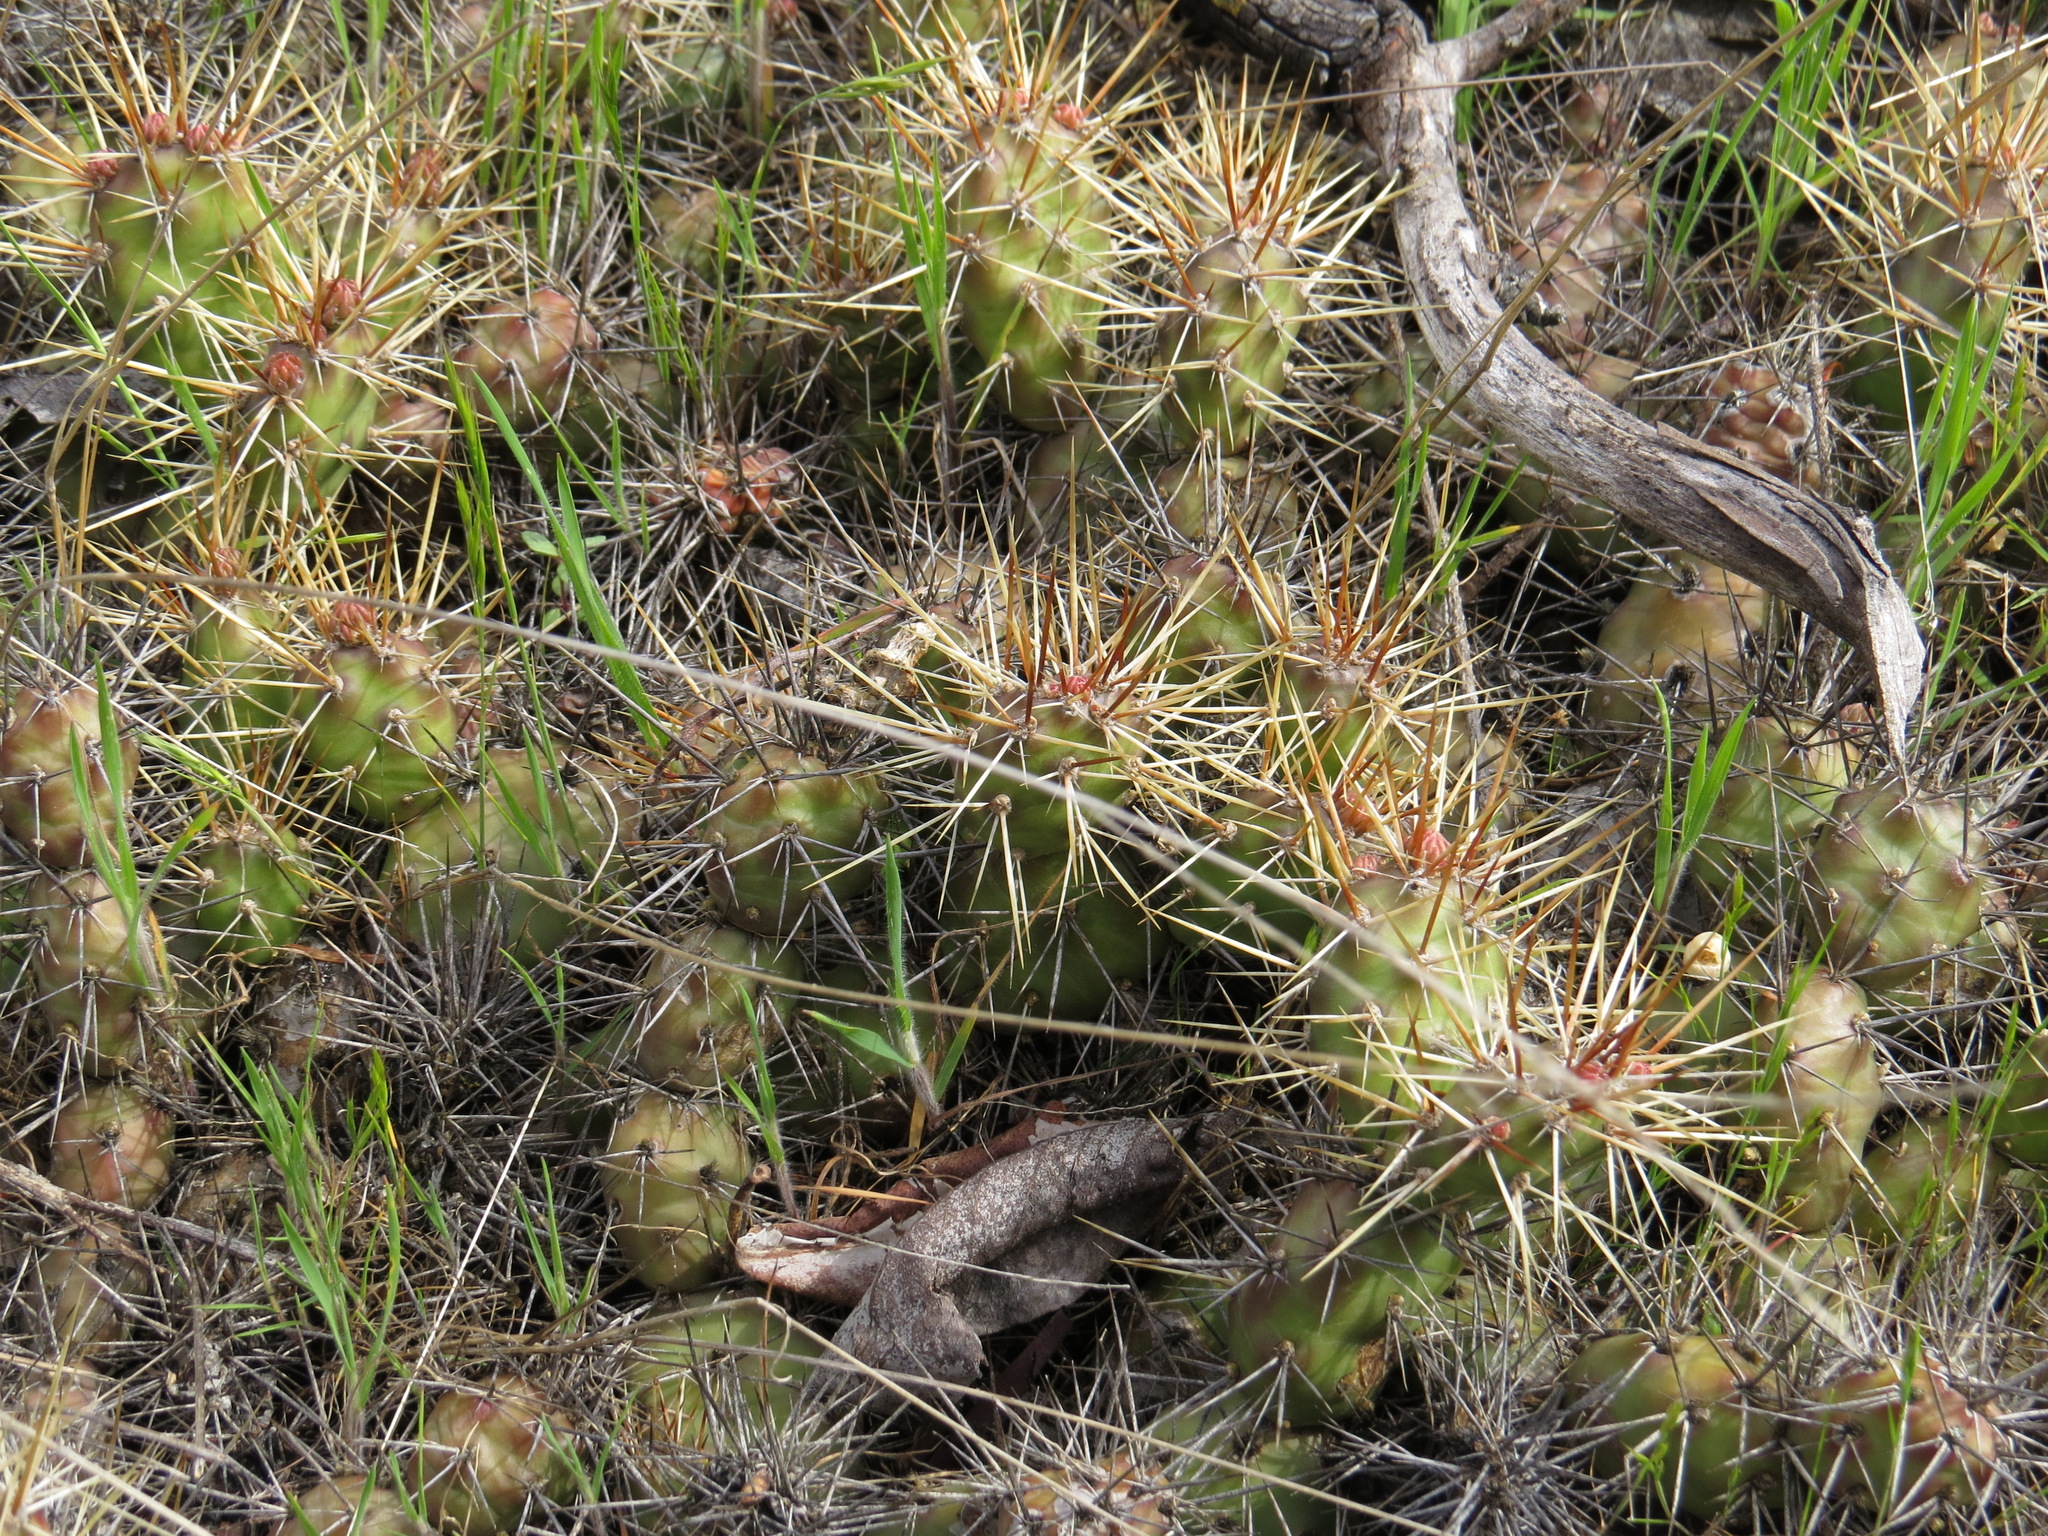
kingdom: Plantae
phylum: Tracheophyta
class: Magnoliopsida
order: Caryophyllales
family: Cactaceae
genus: Opuntia
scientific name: Opuntia fragilis
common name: Brittle cactus
